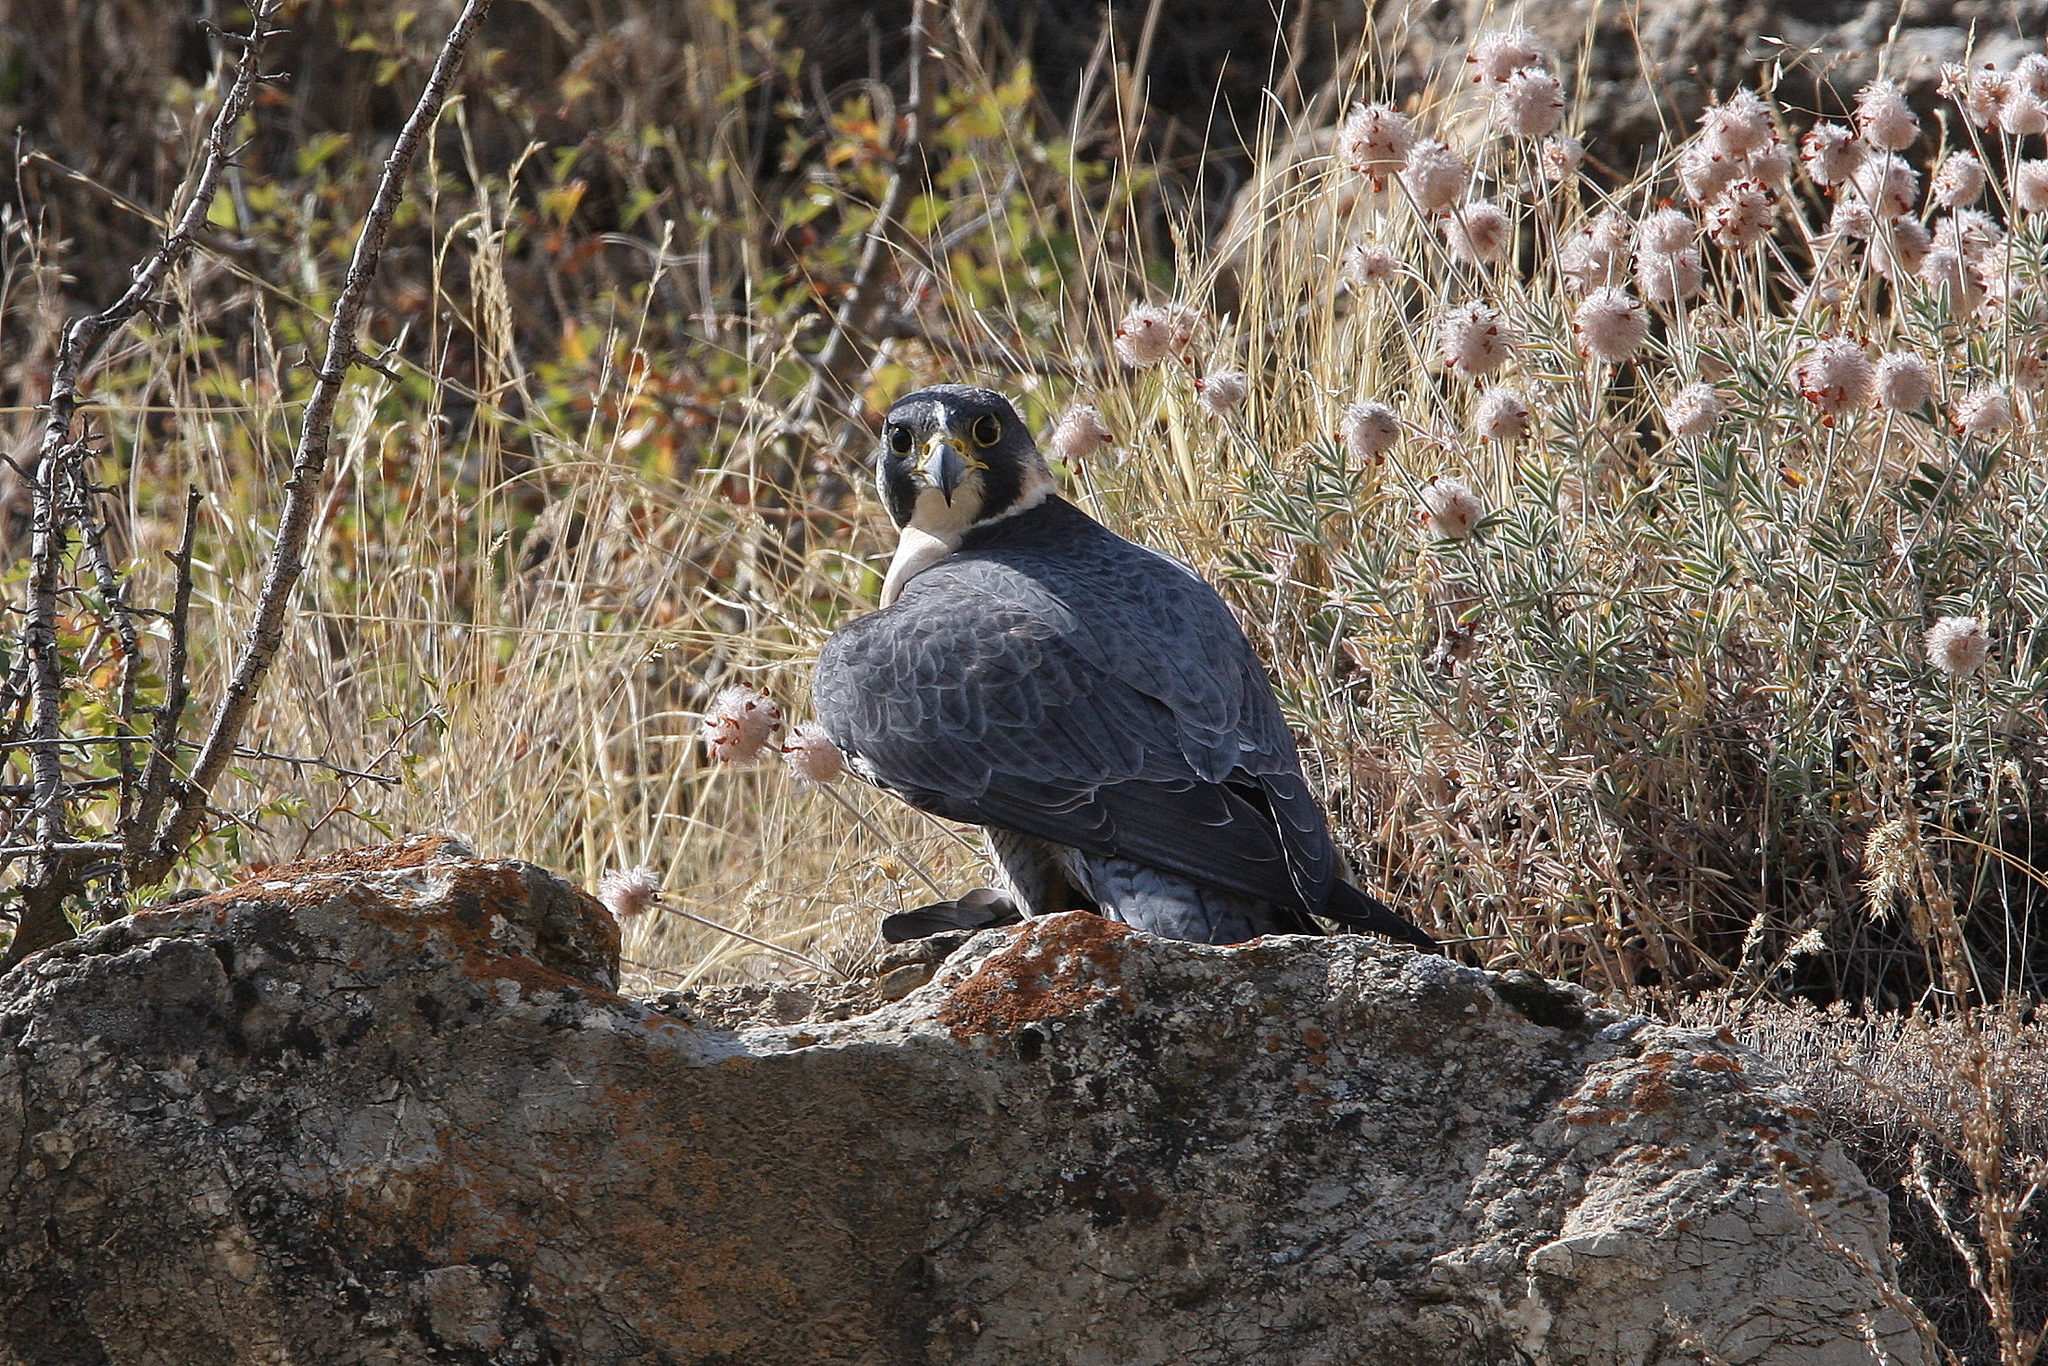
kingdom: Animalia
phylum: Chordata
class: Aves
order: Falconiformes
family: Falconidae
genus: Falco
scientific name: Falco peregrinus
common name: Peregrine falcon
